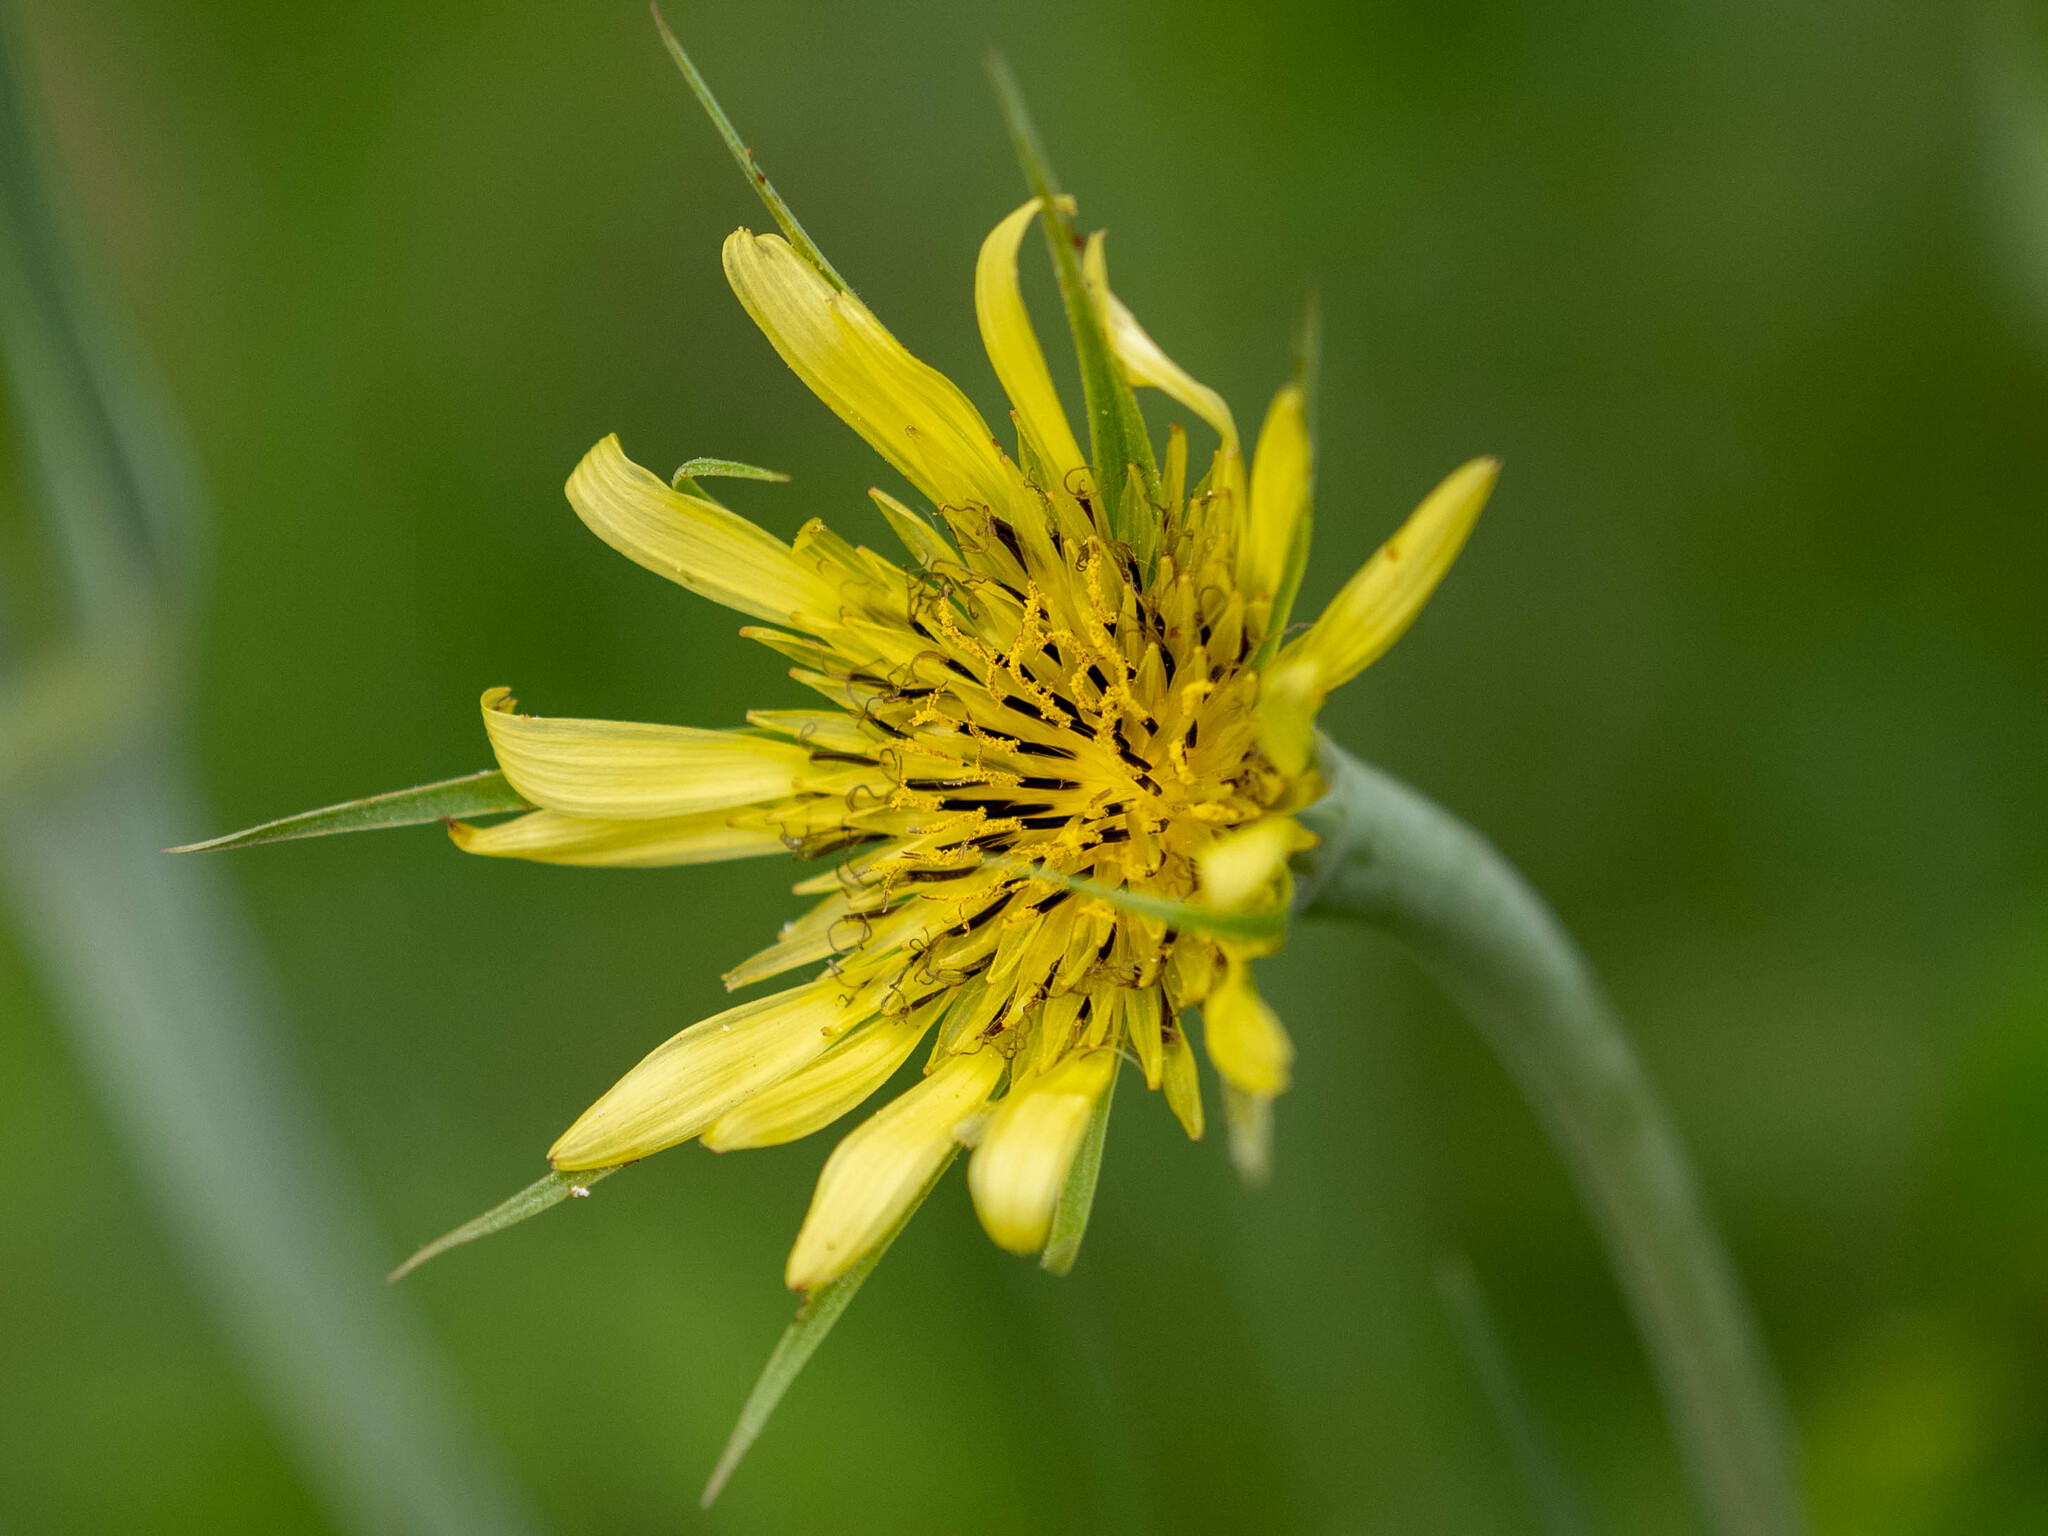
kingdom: Plantae
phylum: Tracheophyta
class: Magnoliopsida
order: Asterales
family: Asteraceae
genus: Tragopogon
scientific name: Tragopogon dubius
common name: Yellow salsify
